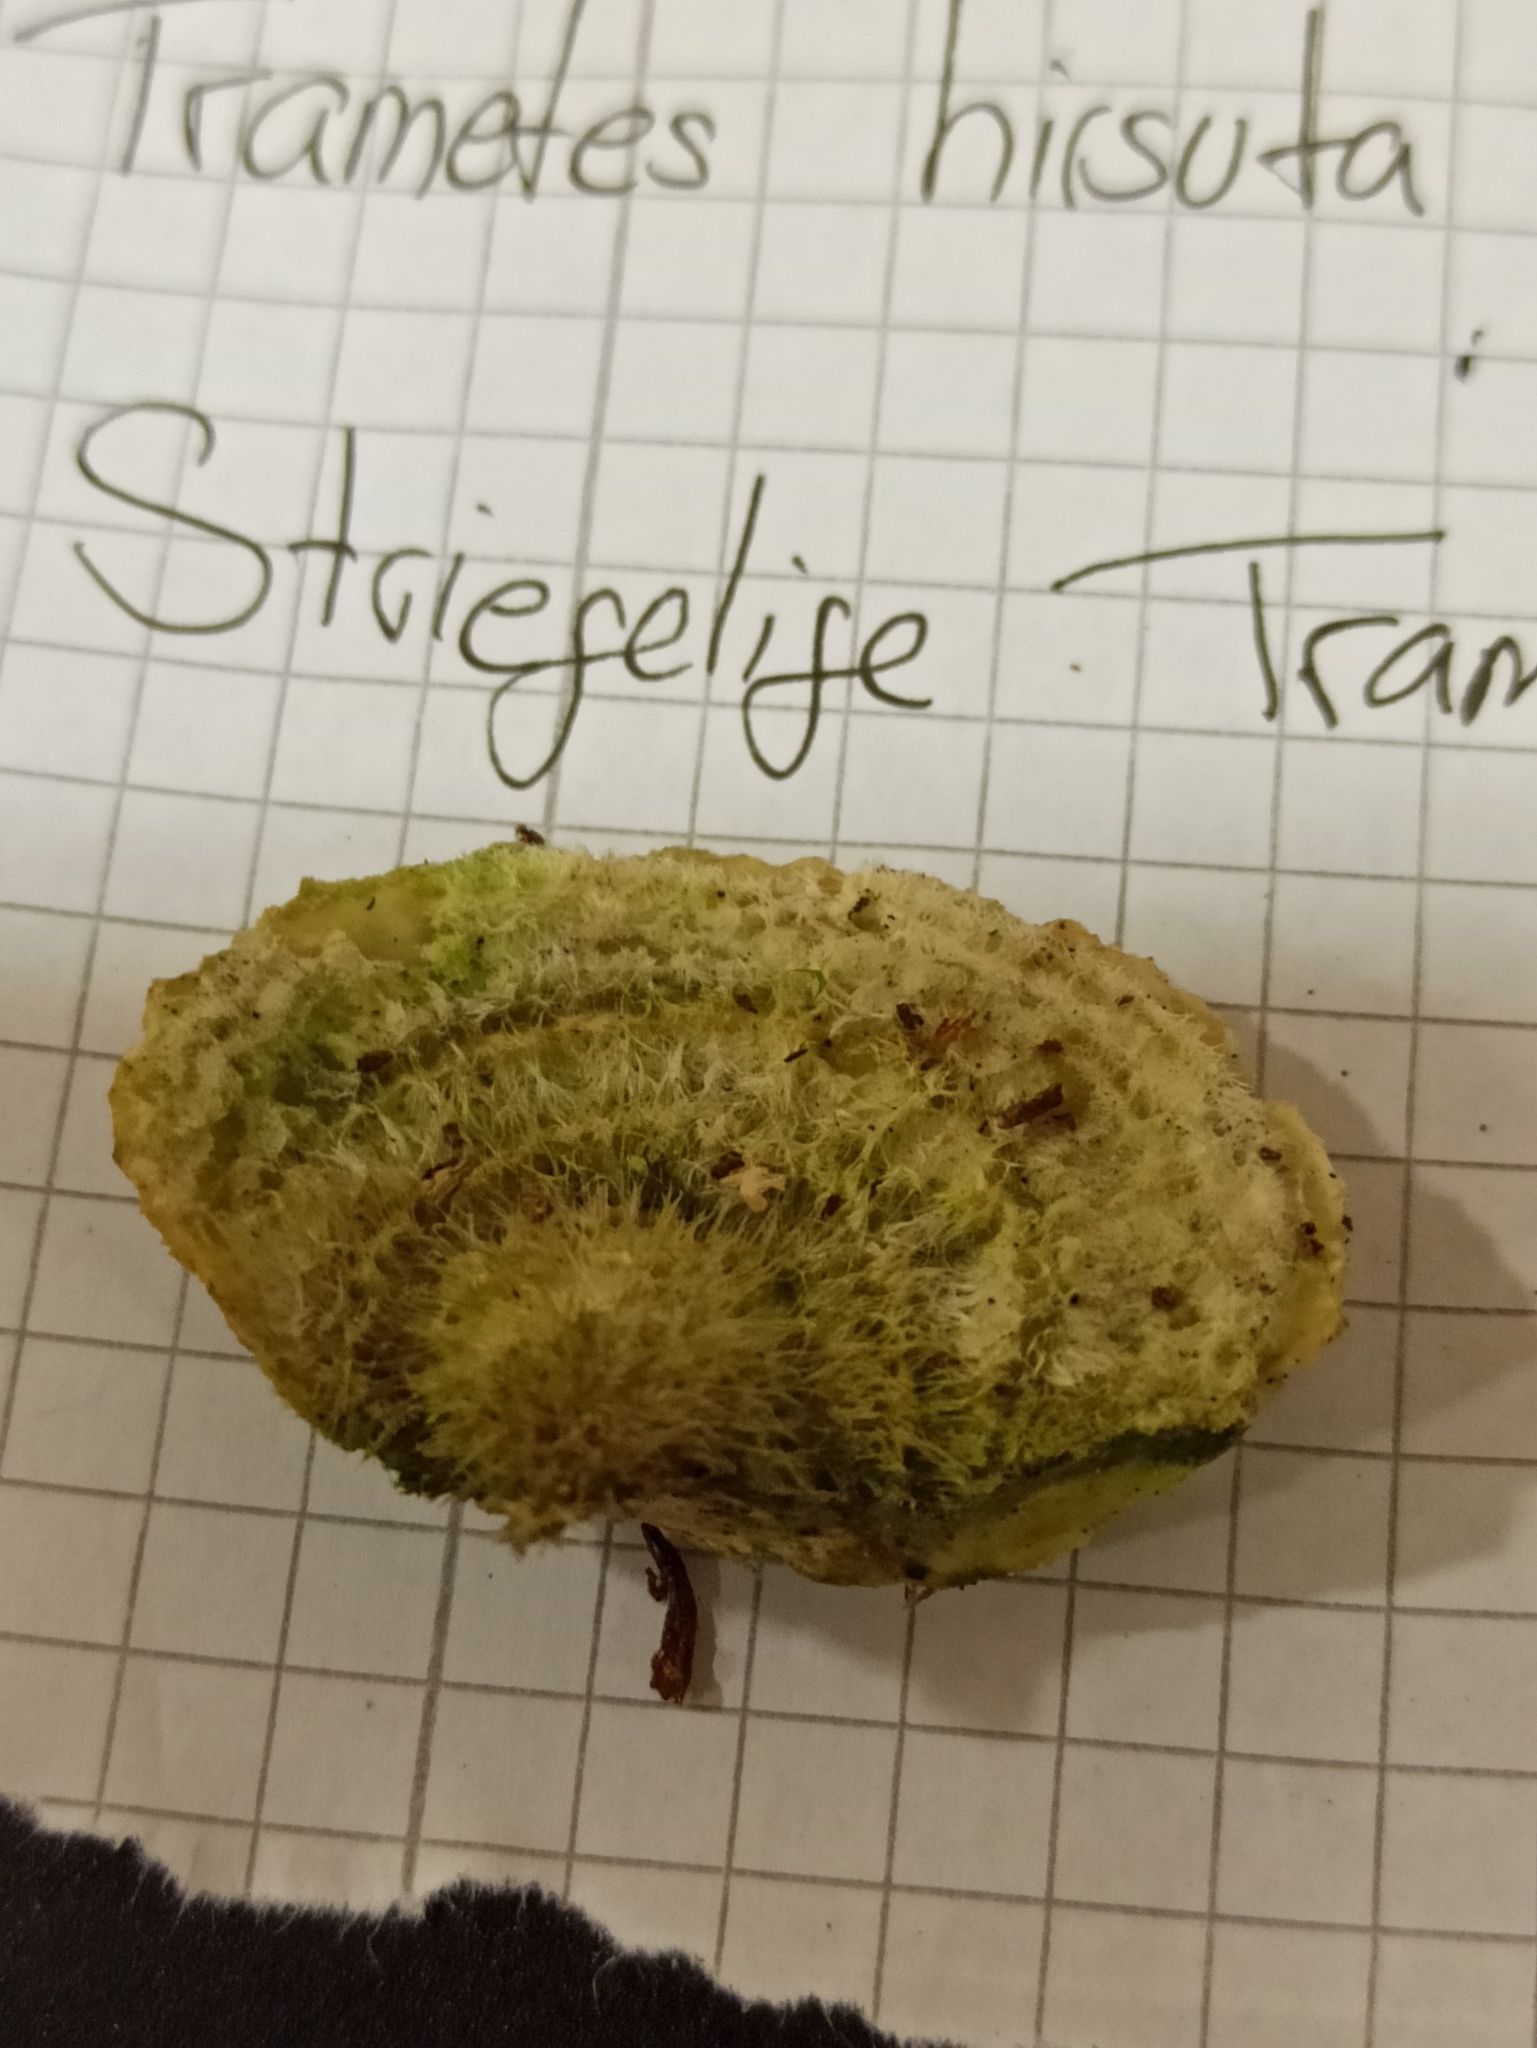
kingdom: Fungi
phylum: Basidiomycota
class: Agaricomycetes
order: Polyporales
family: Polyporaceae
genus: Trametes
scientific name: Trametes hirsuta
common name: Hairy bracket
